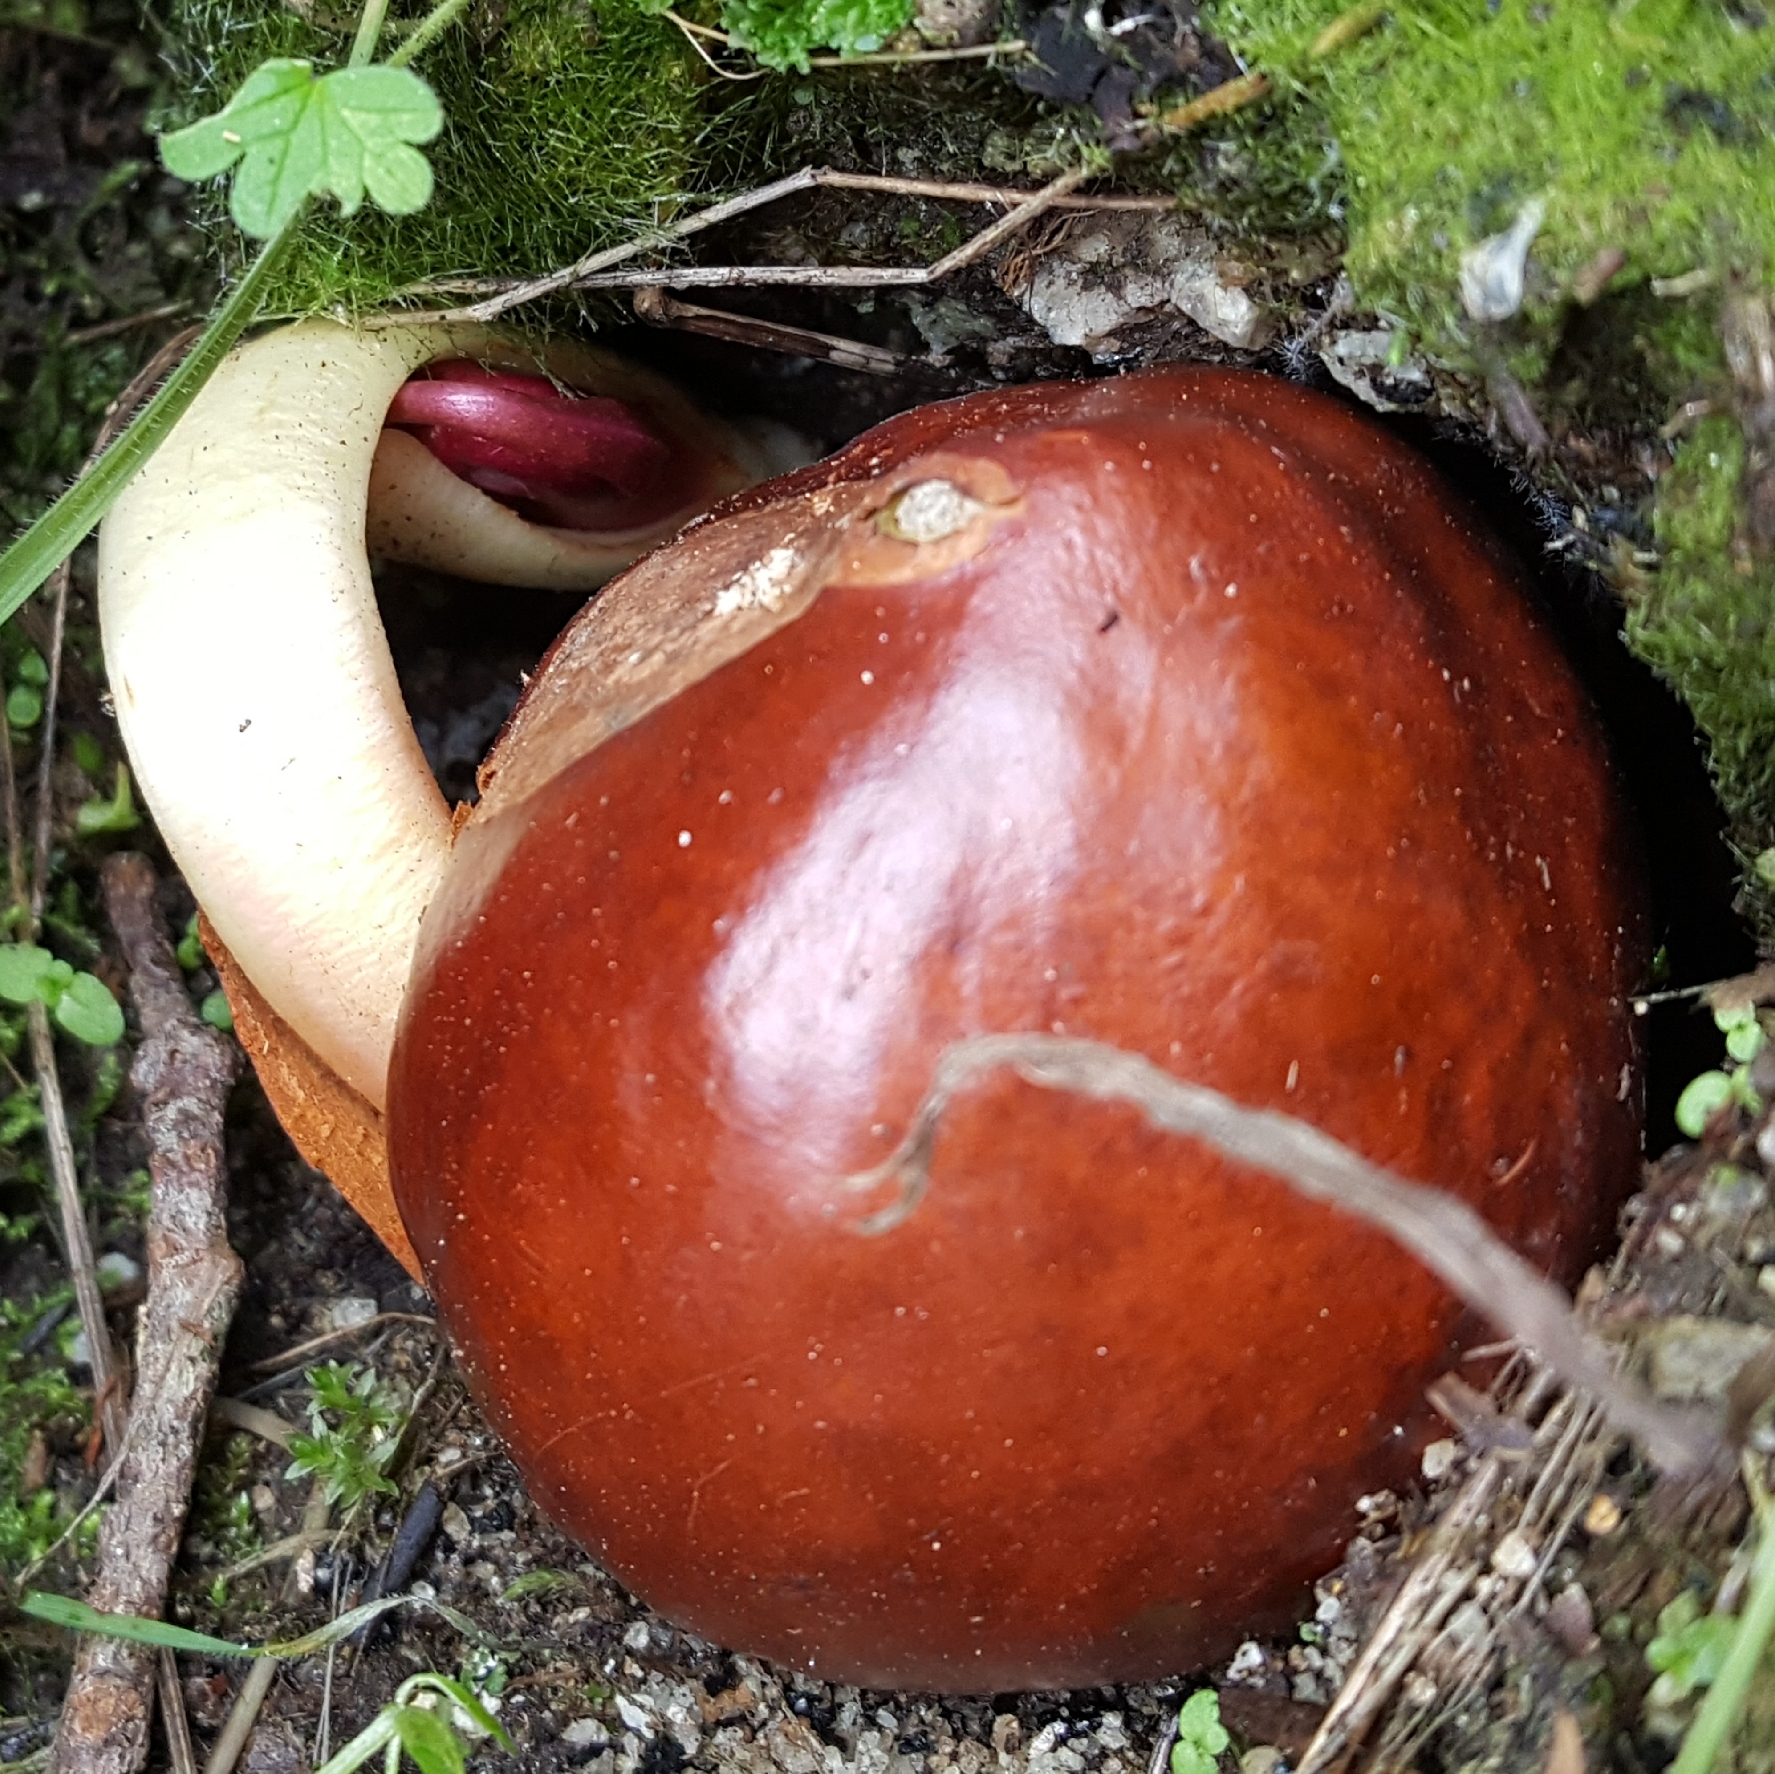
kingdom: Plantae
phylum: Tracheophyta
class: Magnoliopsida
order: Sapindales
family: Sapindaceae
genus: Aesculus
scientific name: Aesculus californica
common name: California buckeye
